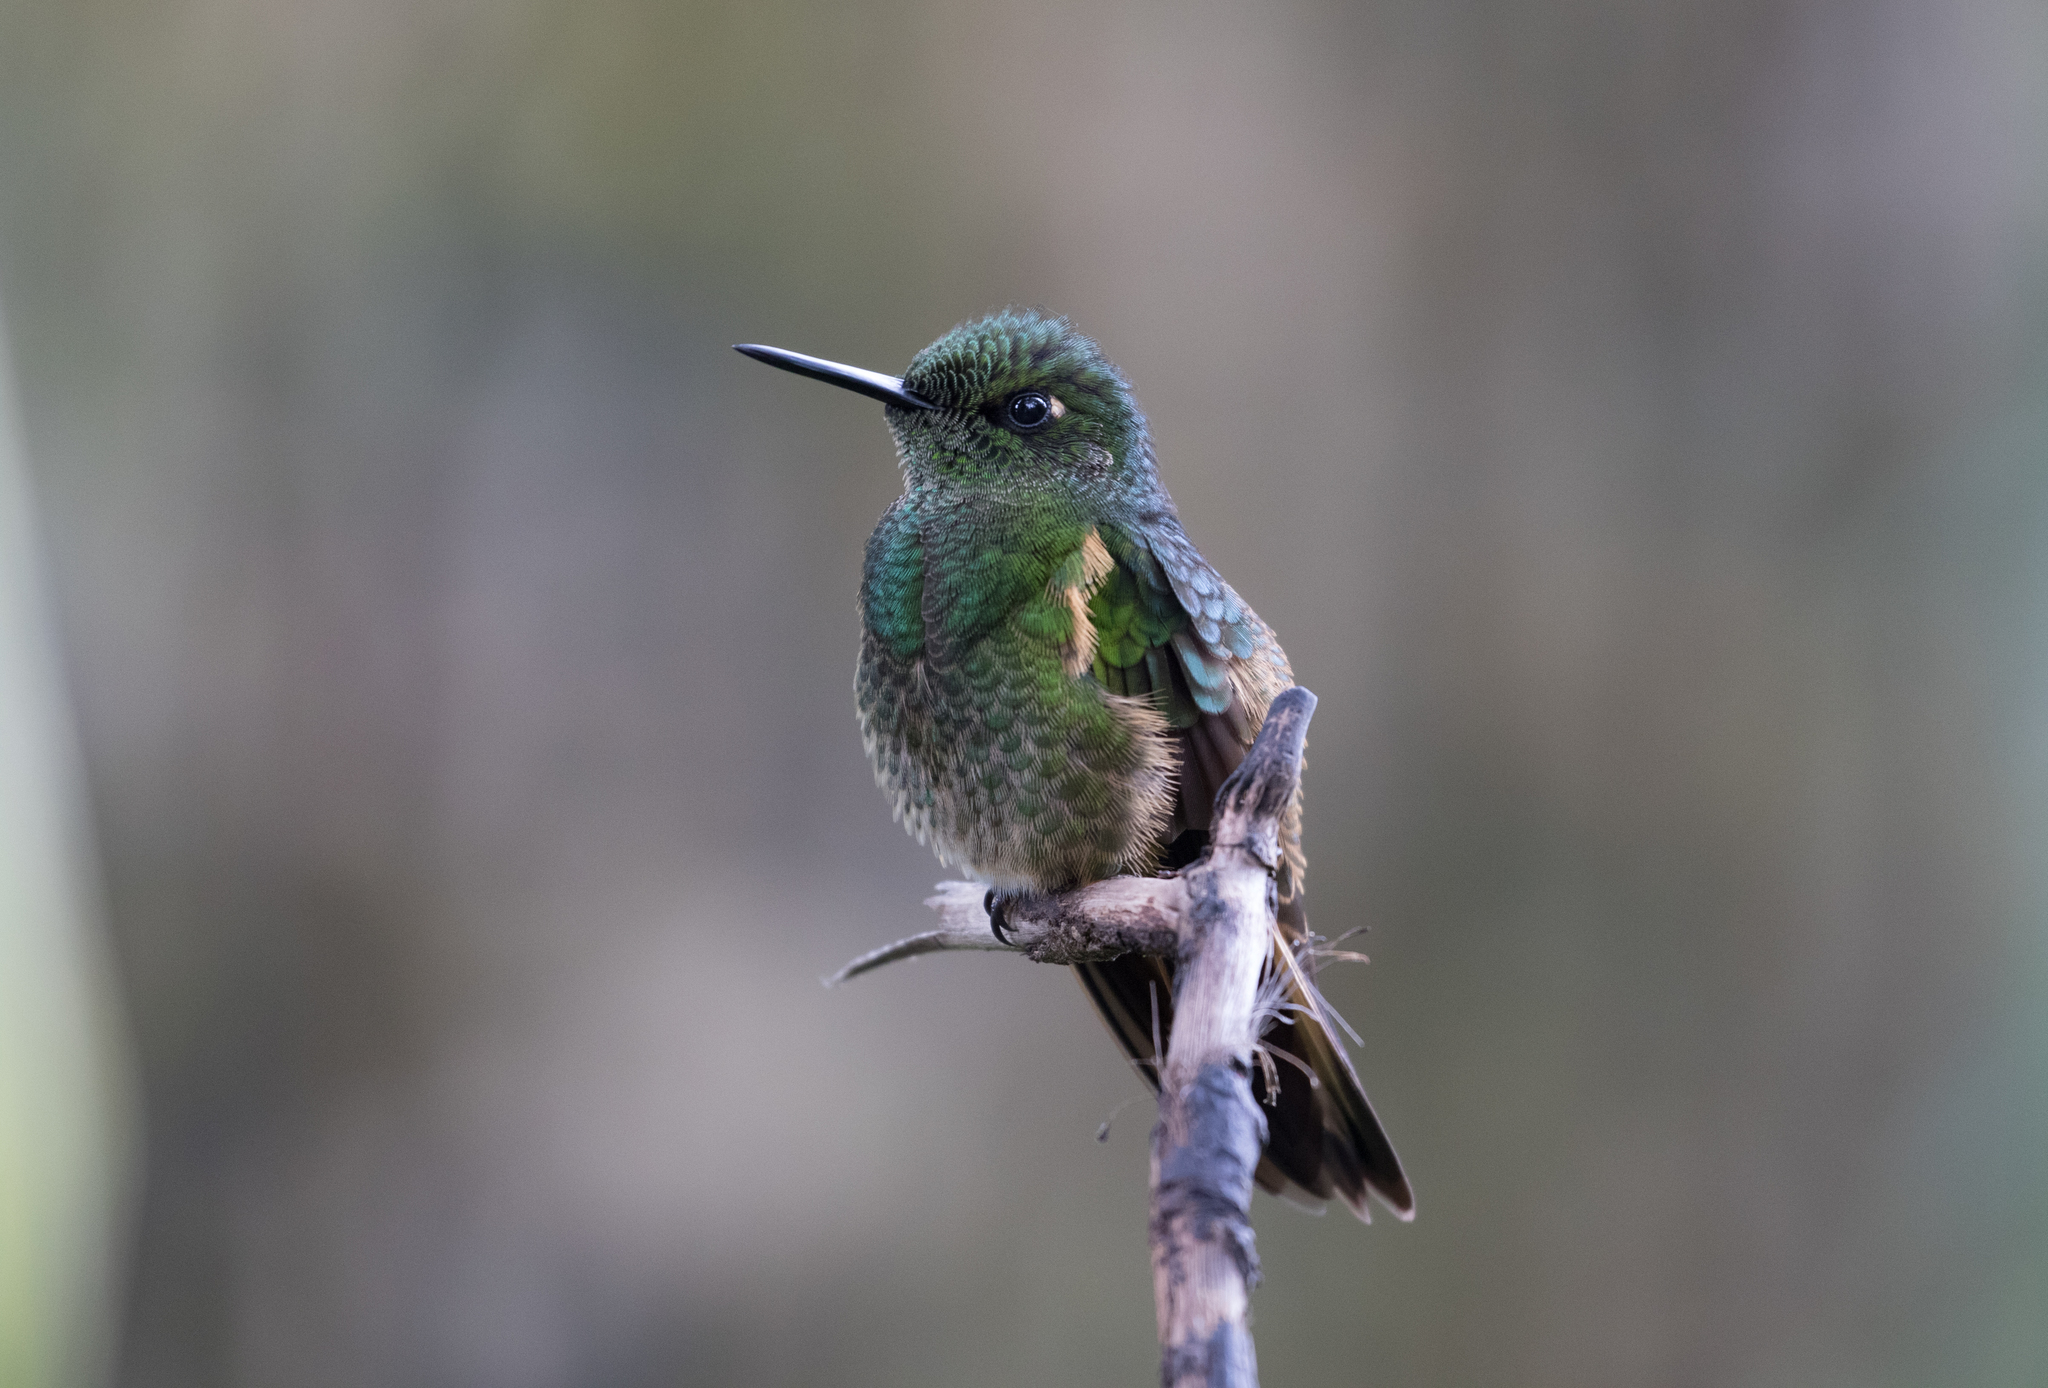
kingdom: Animalia
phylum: Chordata
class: Aves
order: Apodiformes
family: Trochilidae
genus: Boissonneaua
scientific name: Boissonneaua flavescens
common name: Buff-tailed coronet
